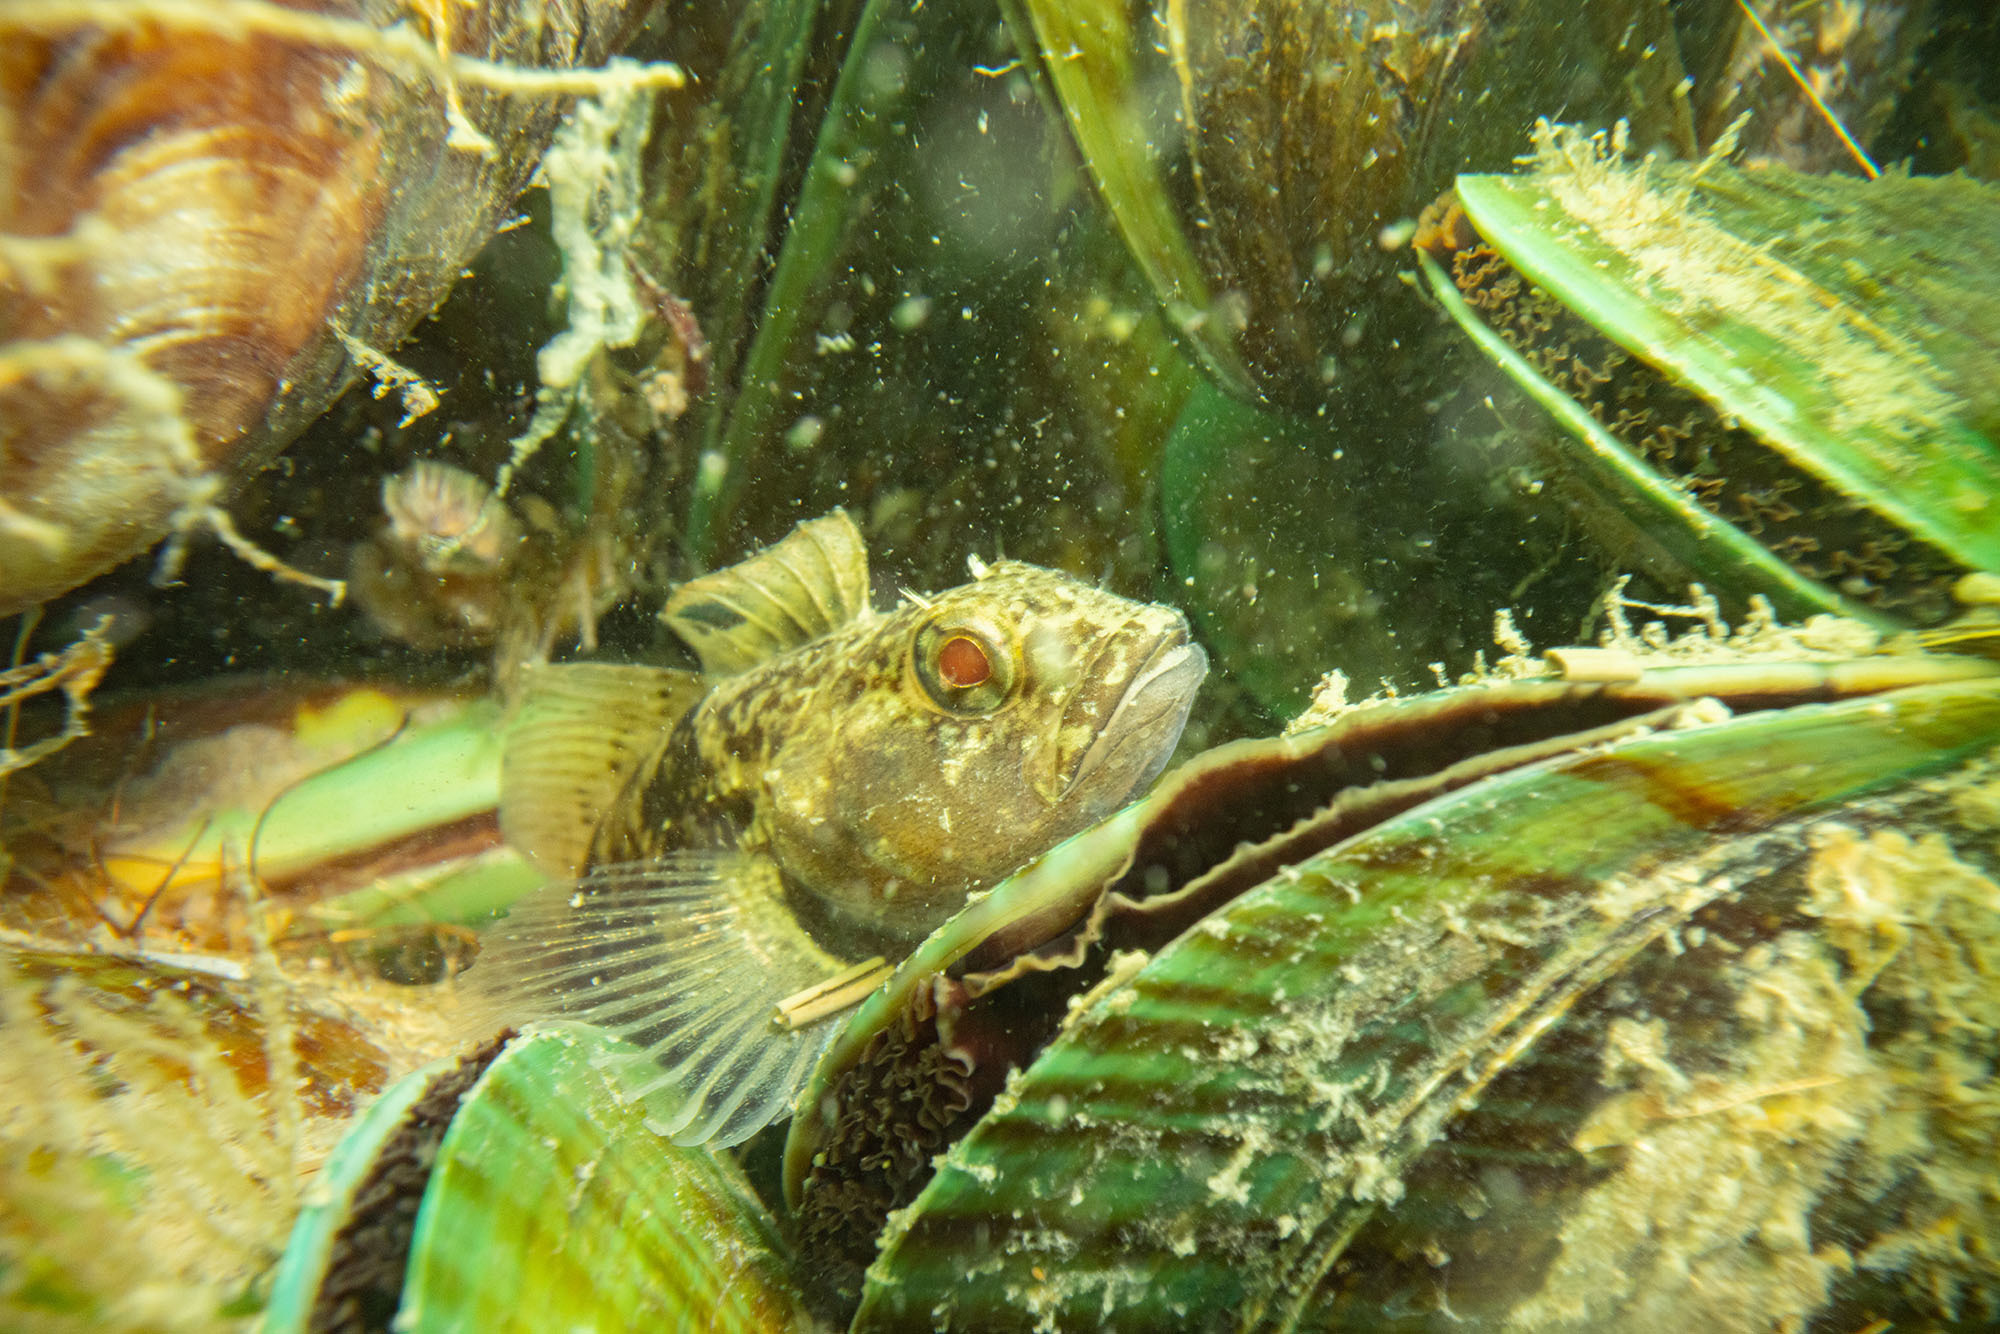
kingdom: Animalia
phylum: Chordata
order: Perciformes
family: Tripterygiidae
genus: Forsterygion
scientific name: Forsterygion gymnotum
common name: Multifid-tentacled robust triplefin
